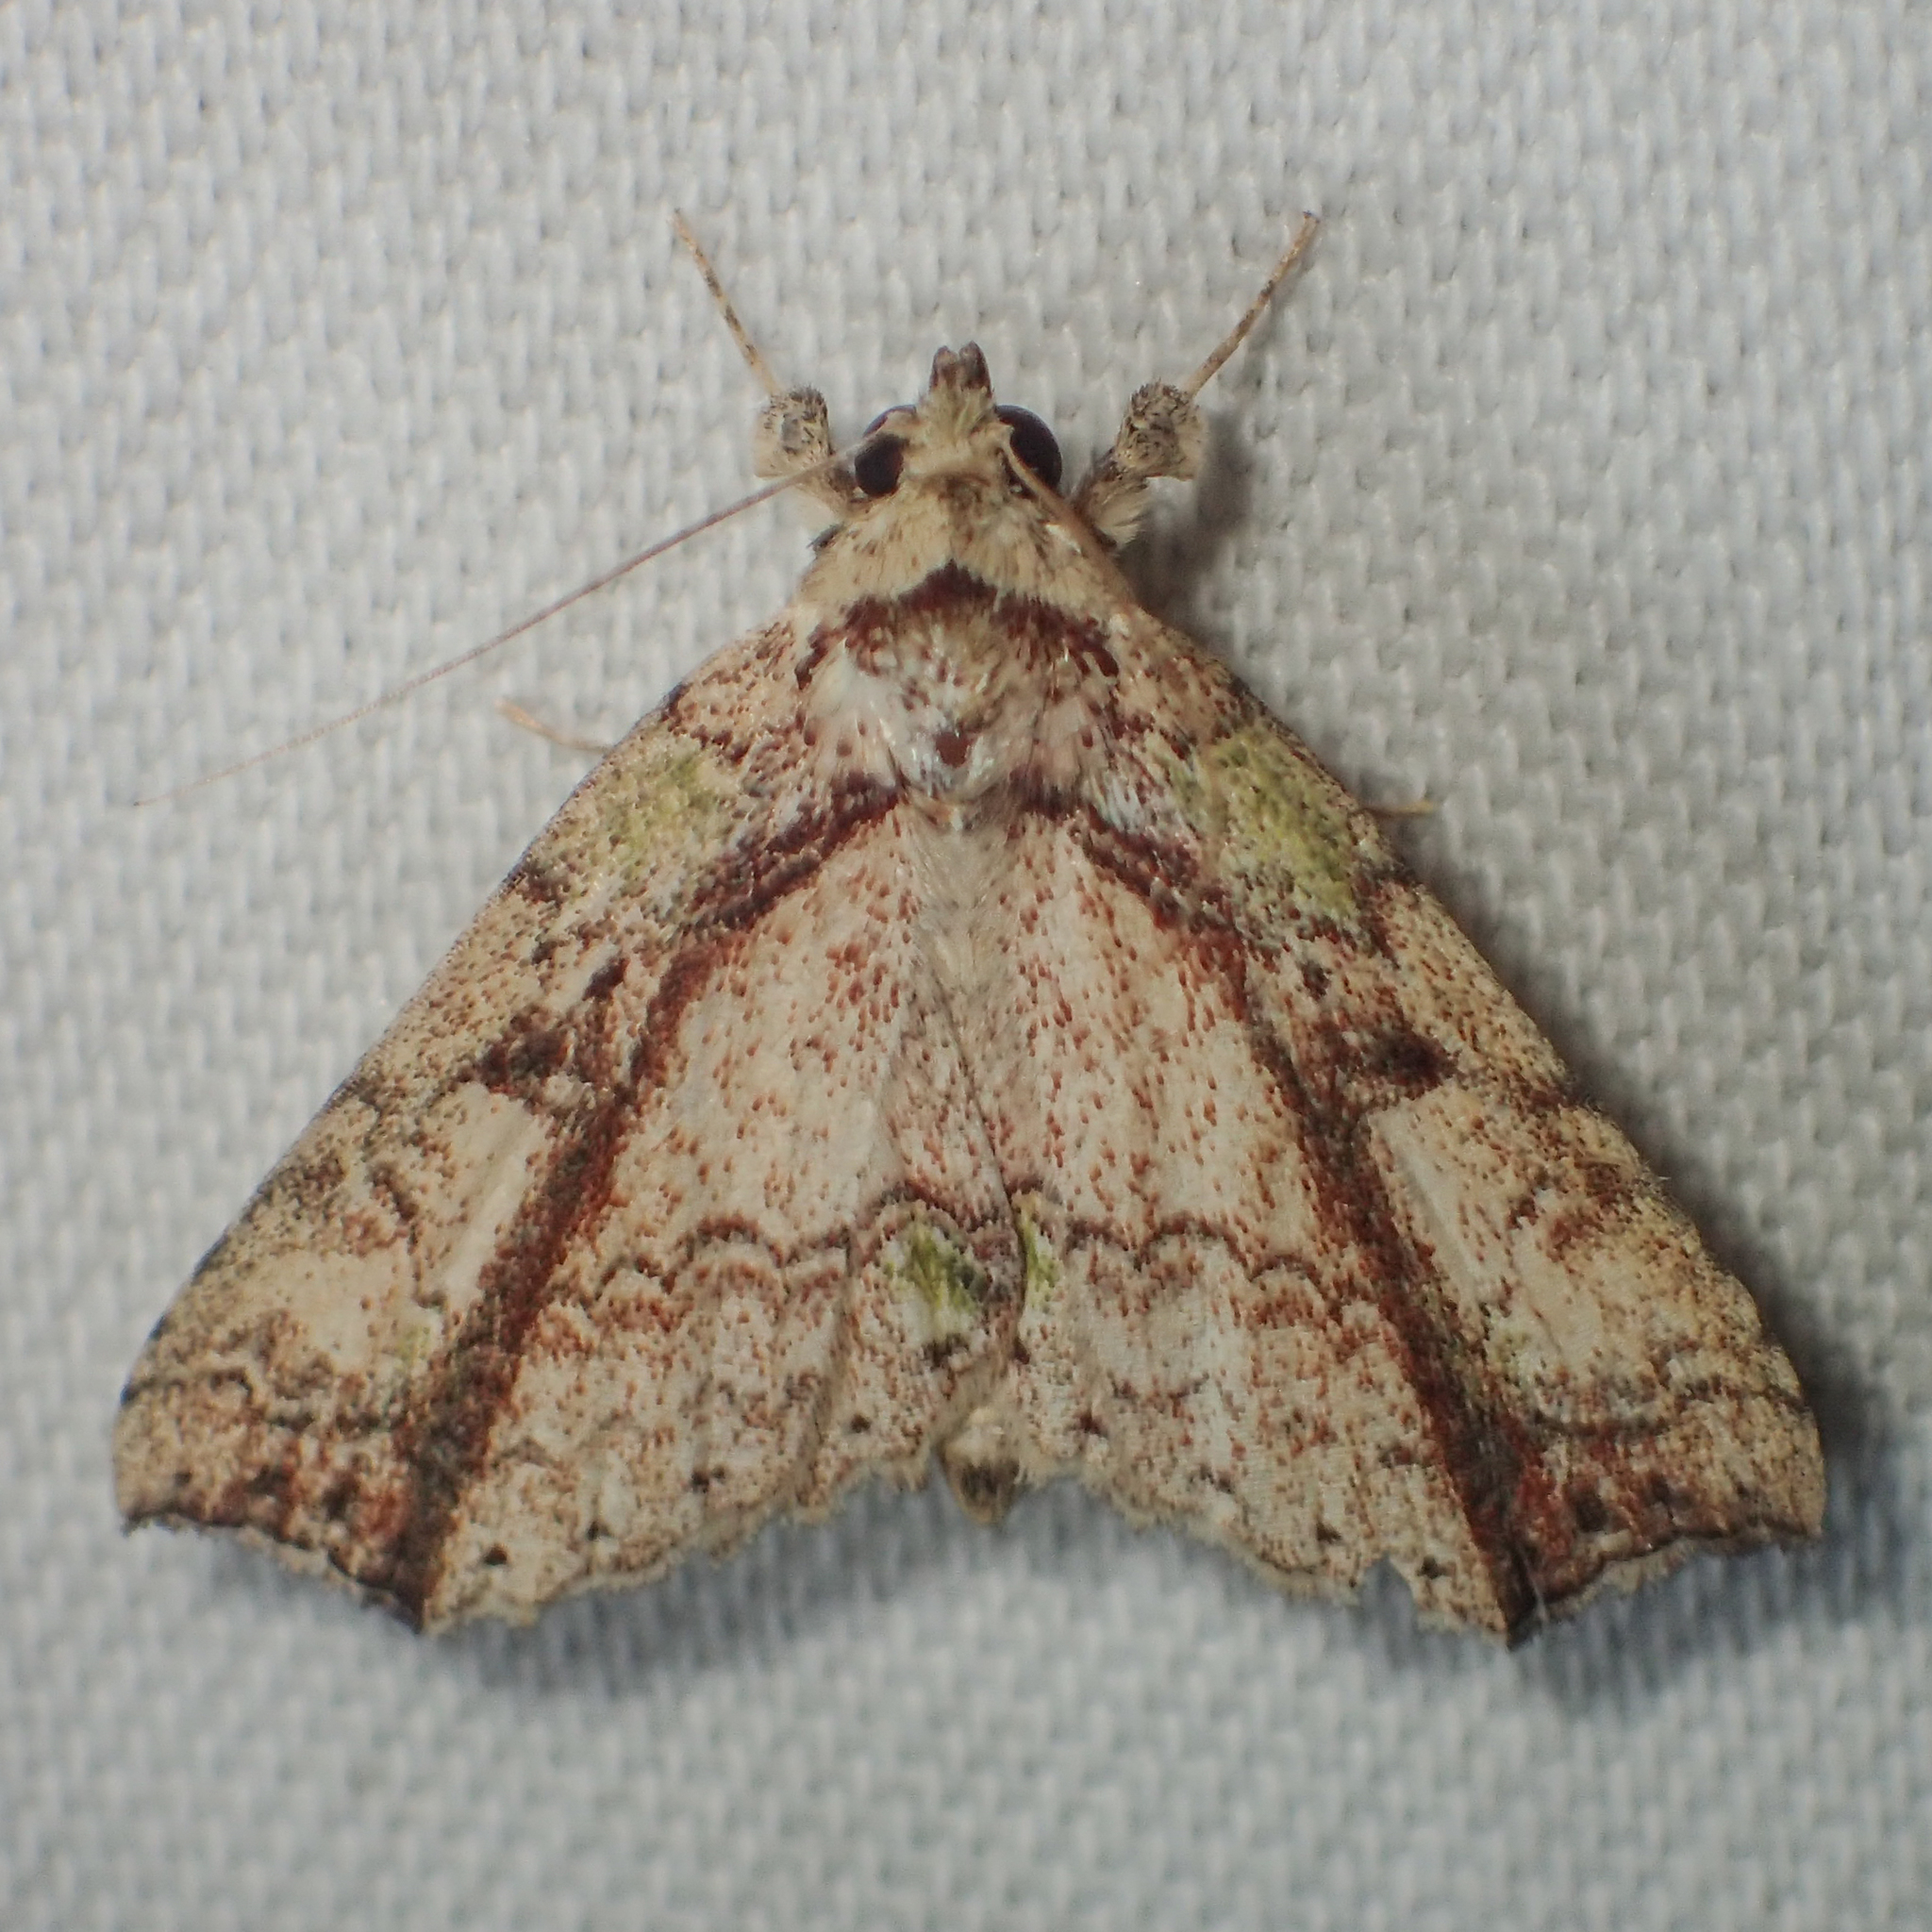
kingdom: Animalia
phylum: Arthropoda
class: Insecta
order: Lepidoptera
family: Erebidae
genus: Tamba
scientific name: Tamba mnionomera
